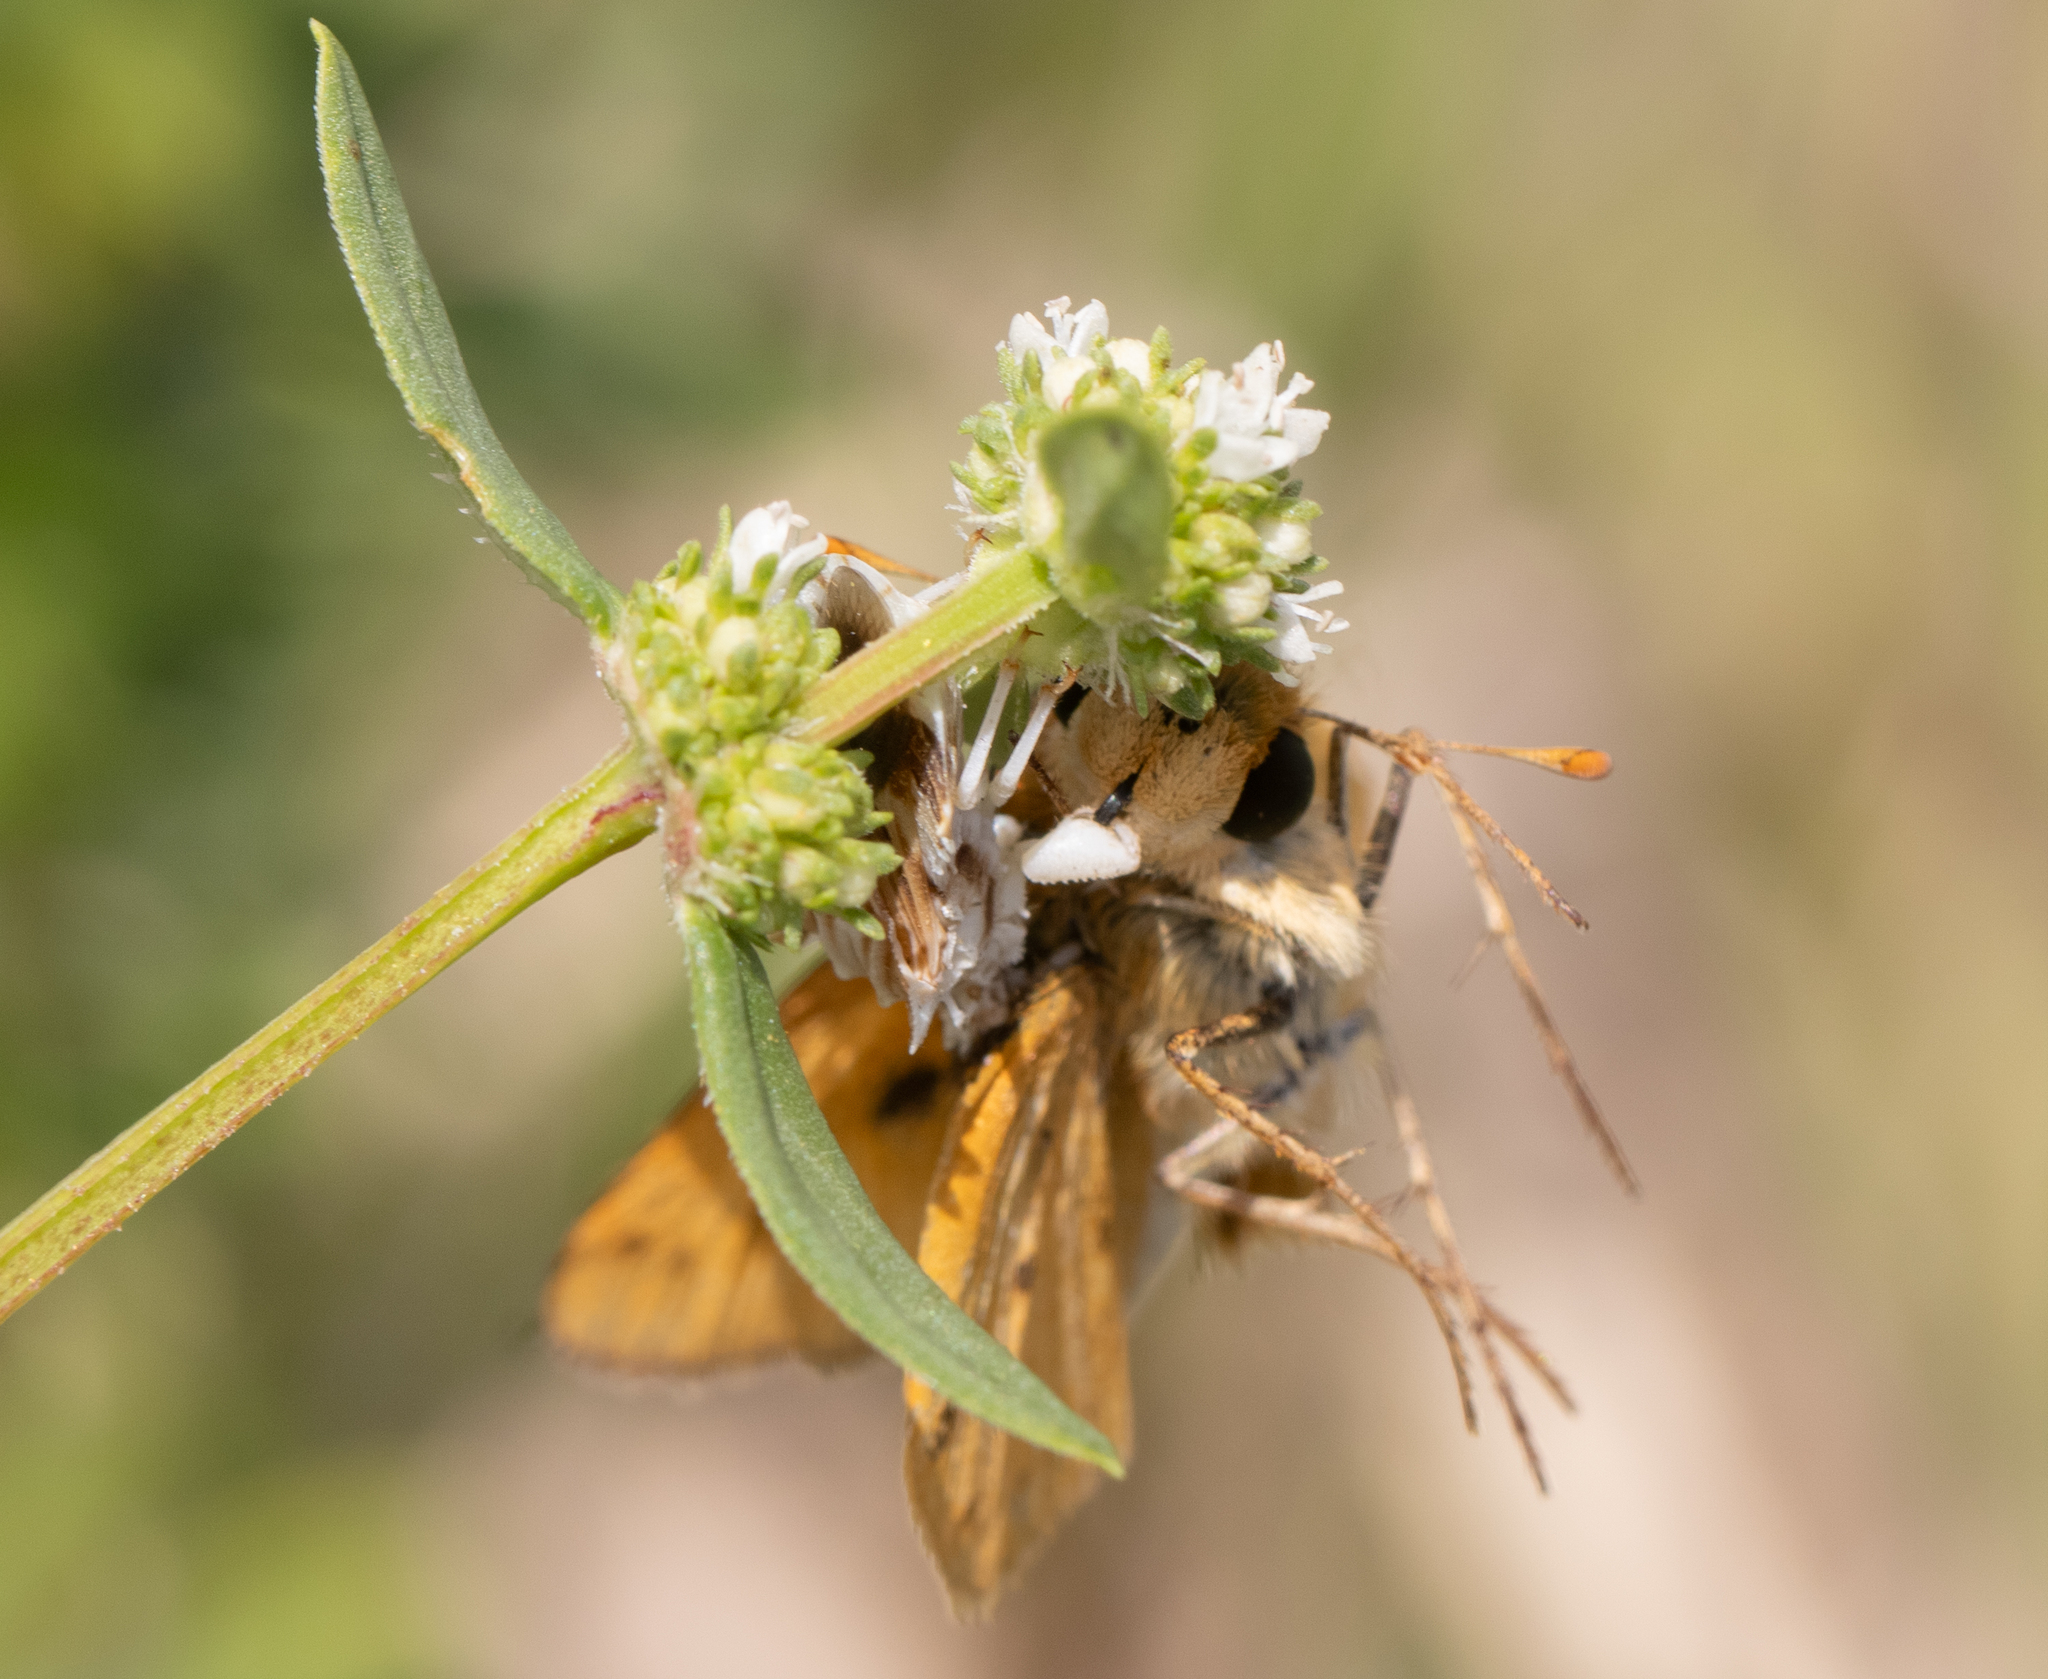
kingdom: Animalia
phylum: Arthropoda
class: Insecta
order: Lepidoptera
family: Hesperiidae
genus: Hylephila
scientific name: Hylephila phyleus
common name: Fiery skipper
